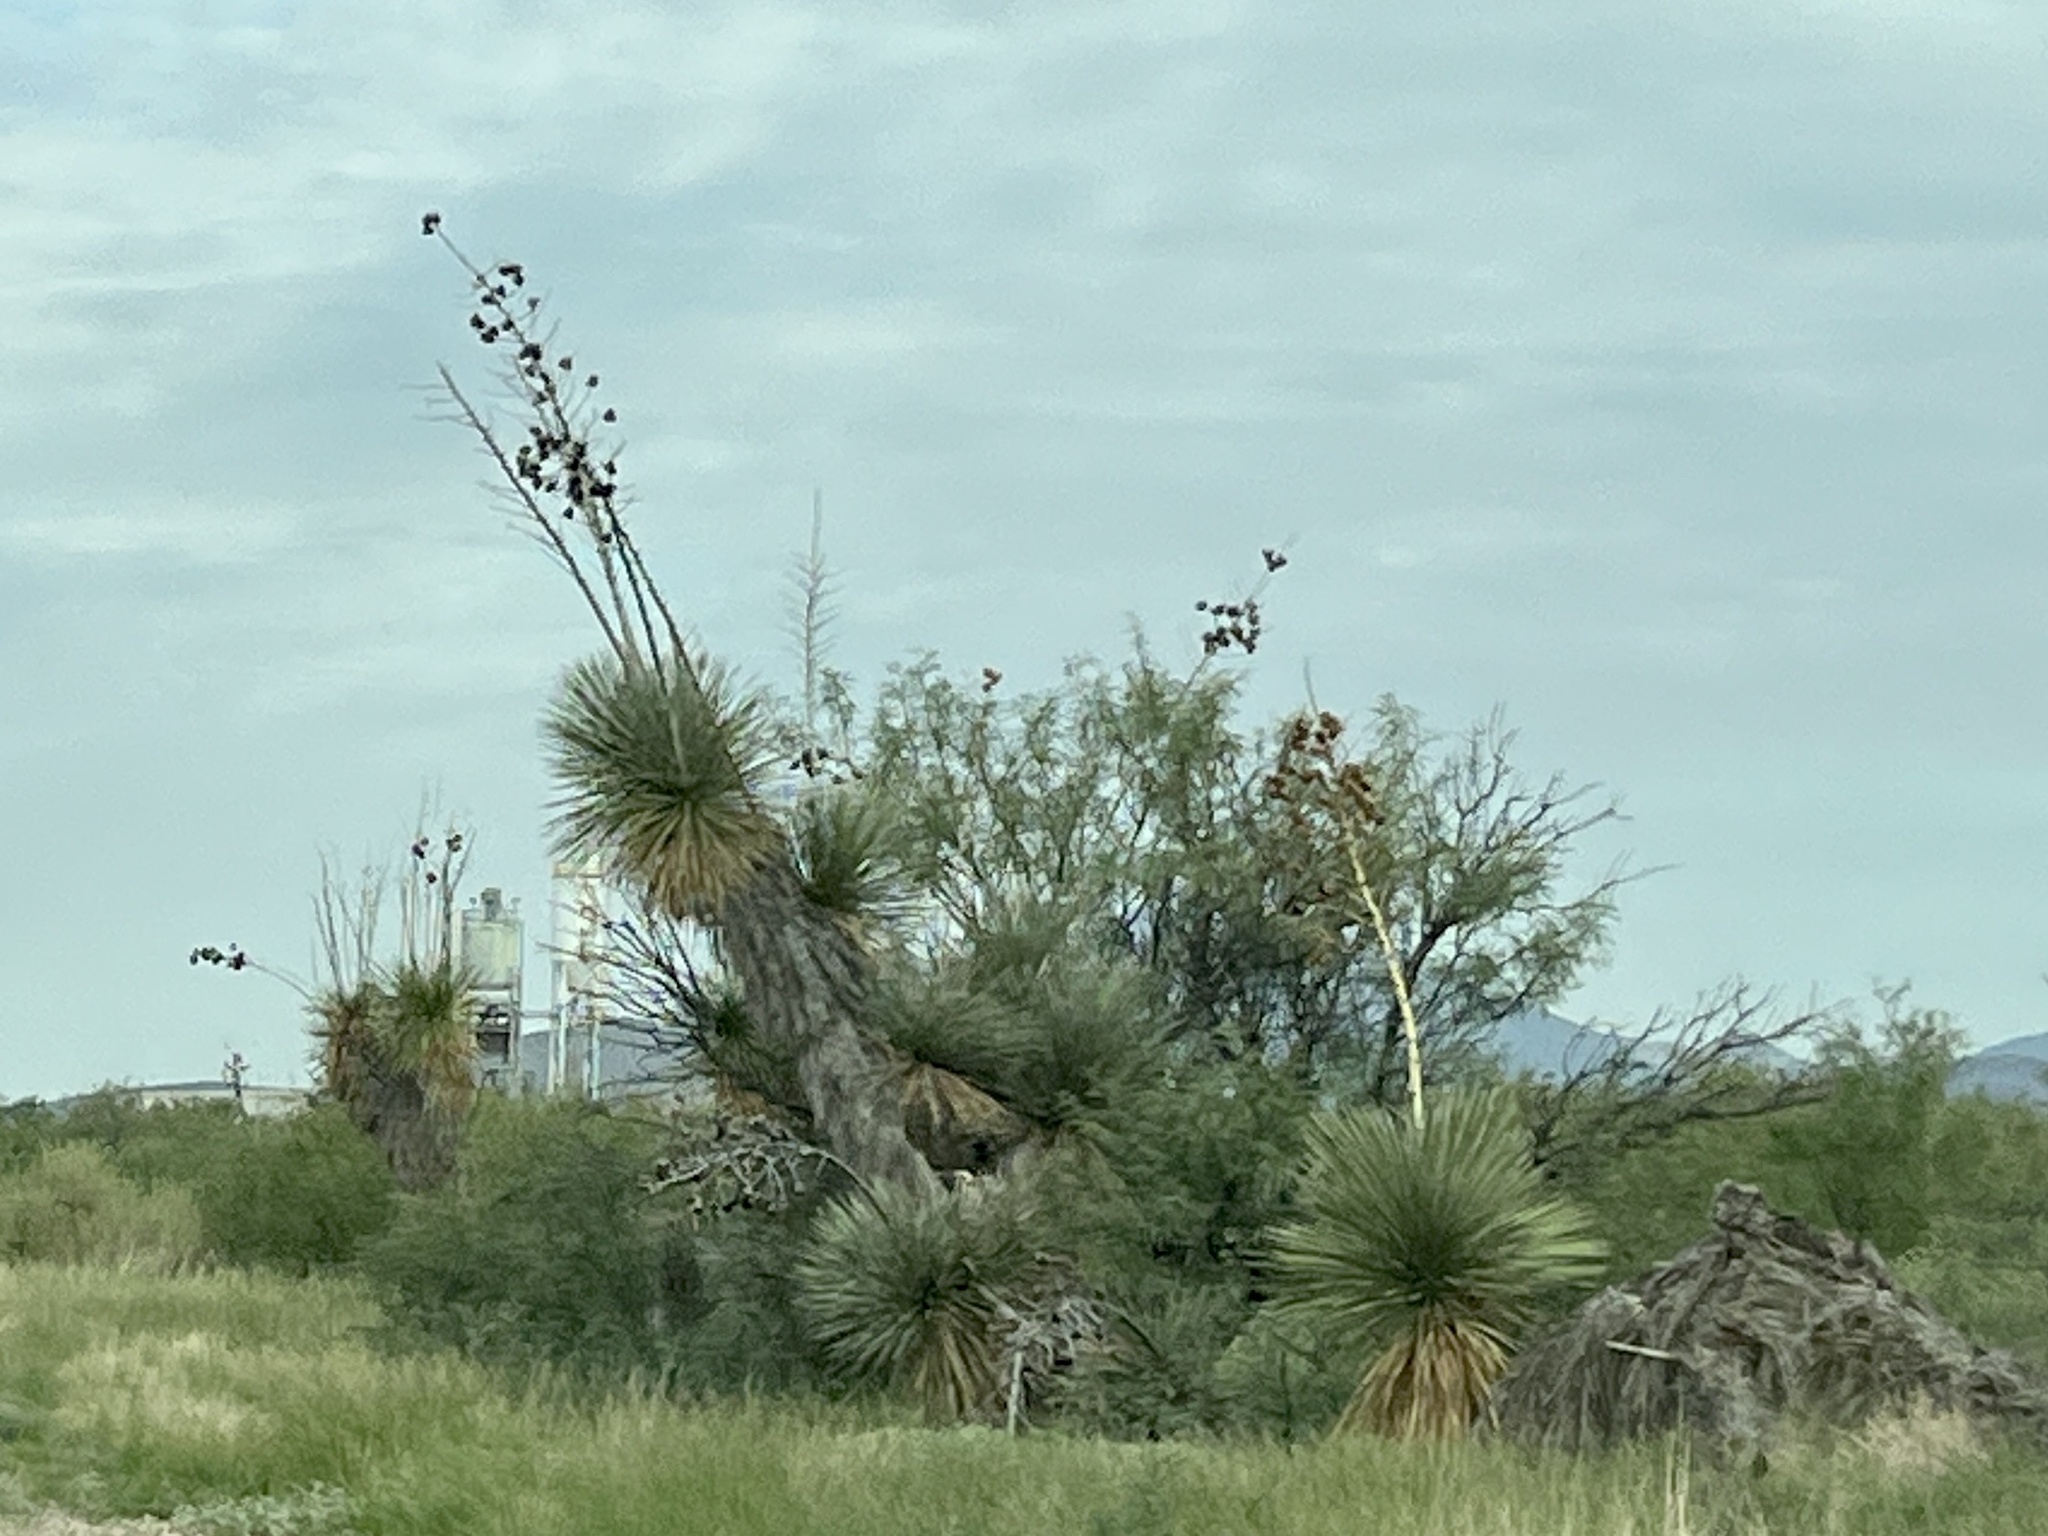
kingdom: Plantae
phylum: Tracheophyta
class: Liliopsida
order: Asparagales
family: Asparagaceae
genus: Yucca
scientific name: Yucca elata
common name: Palmella
